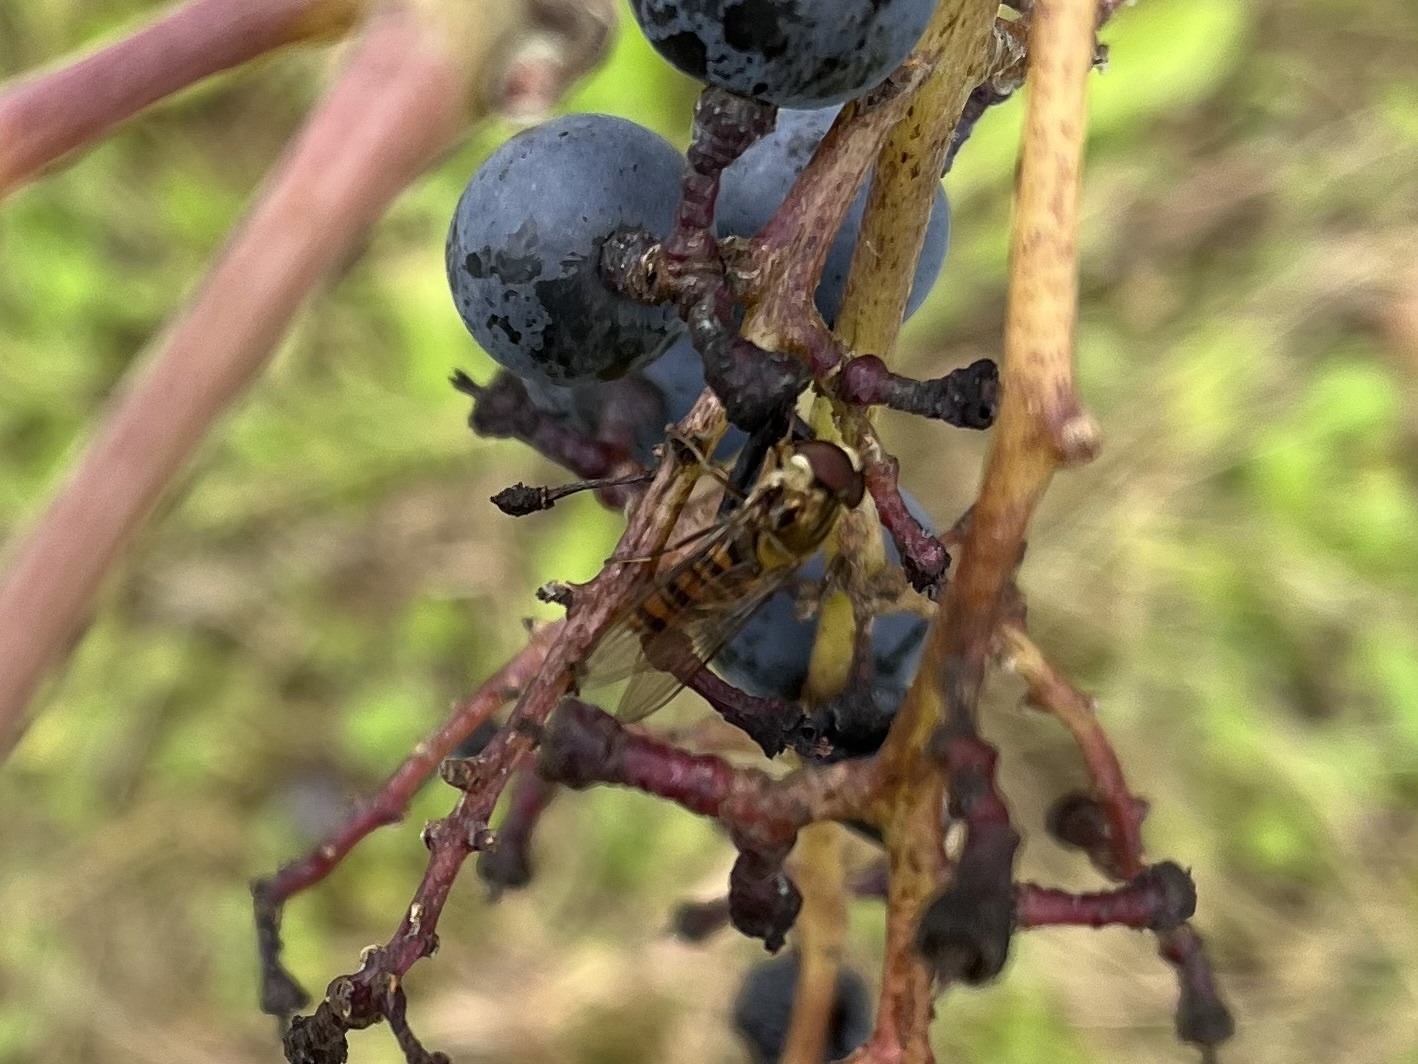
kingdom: Animalia
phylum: Arthropoda
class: Insecta
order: Diptera
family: Syrphidae
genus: Episyrphus
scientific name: Episyrphus balteatus
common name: Marmalade hoverfly
